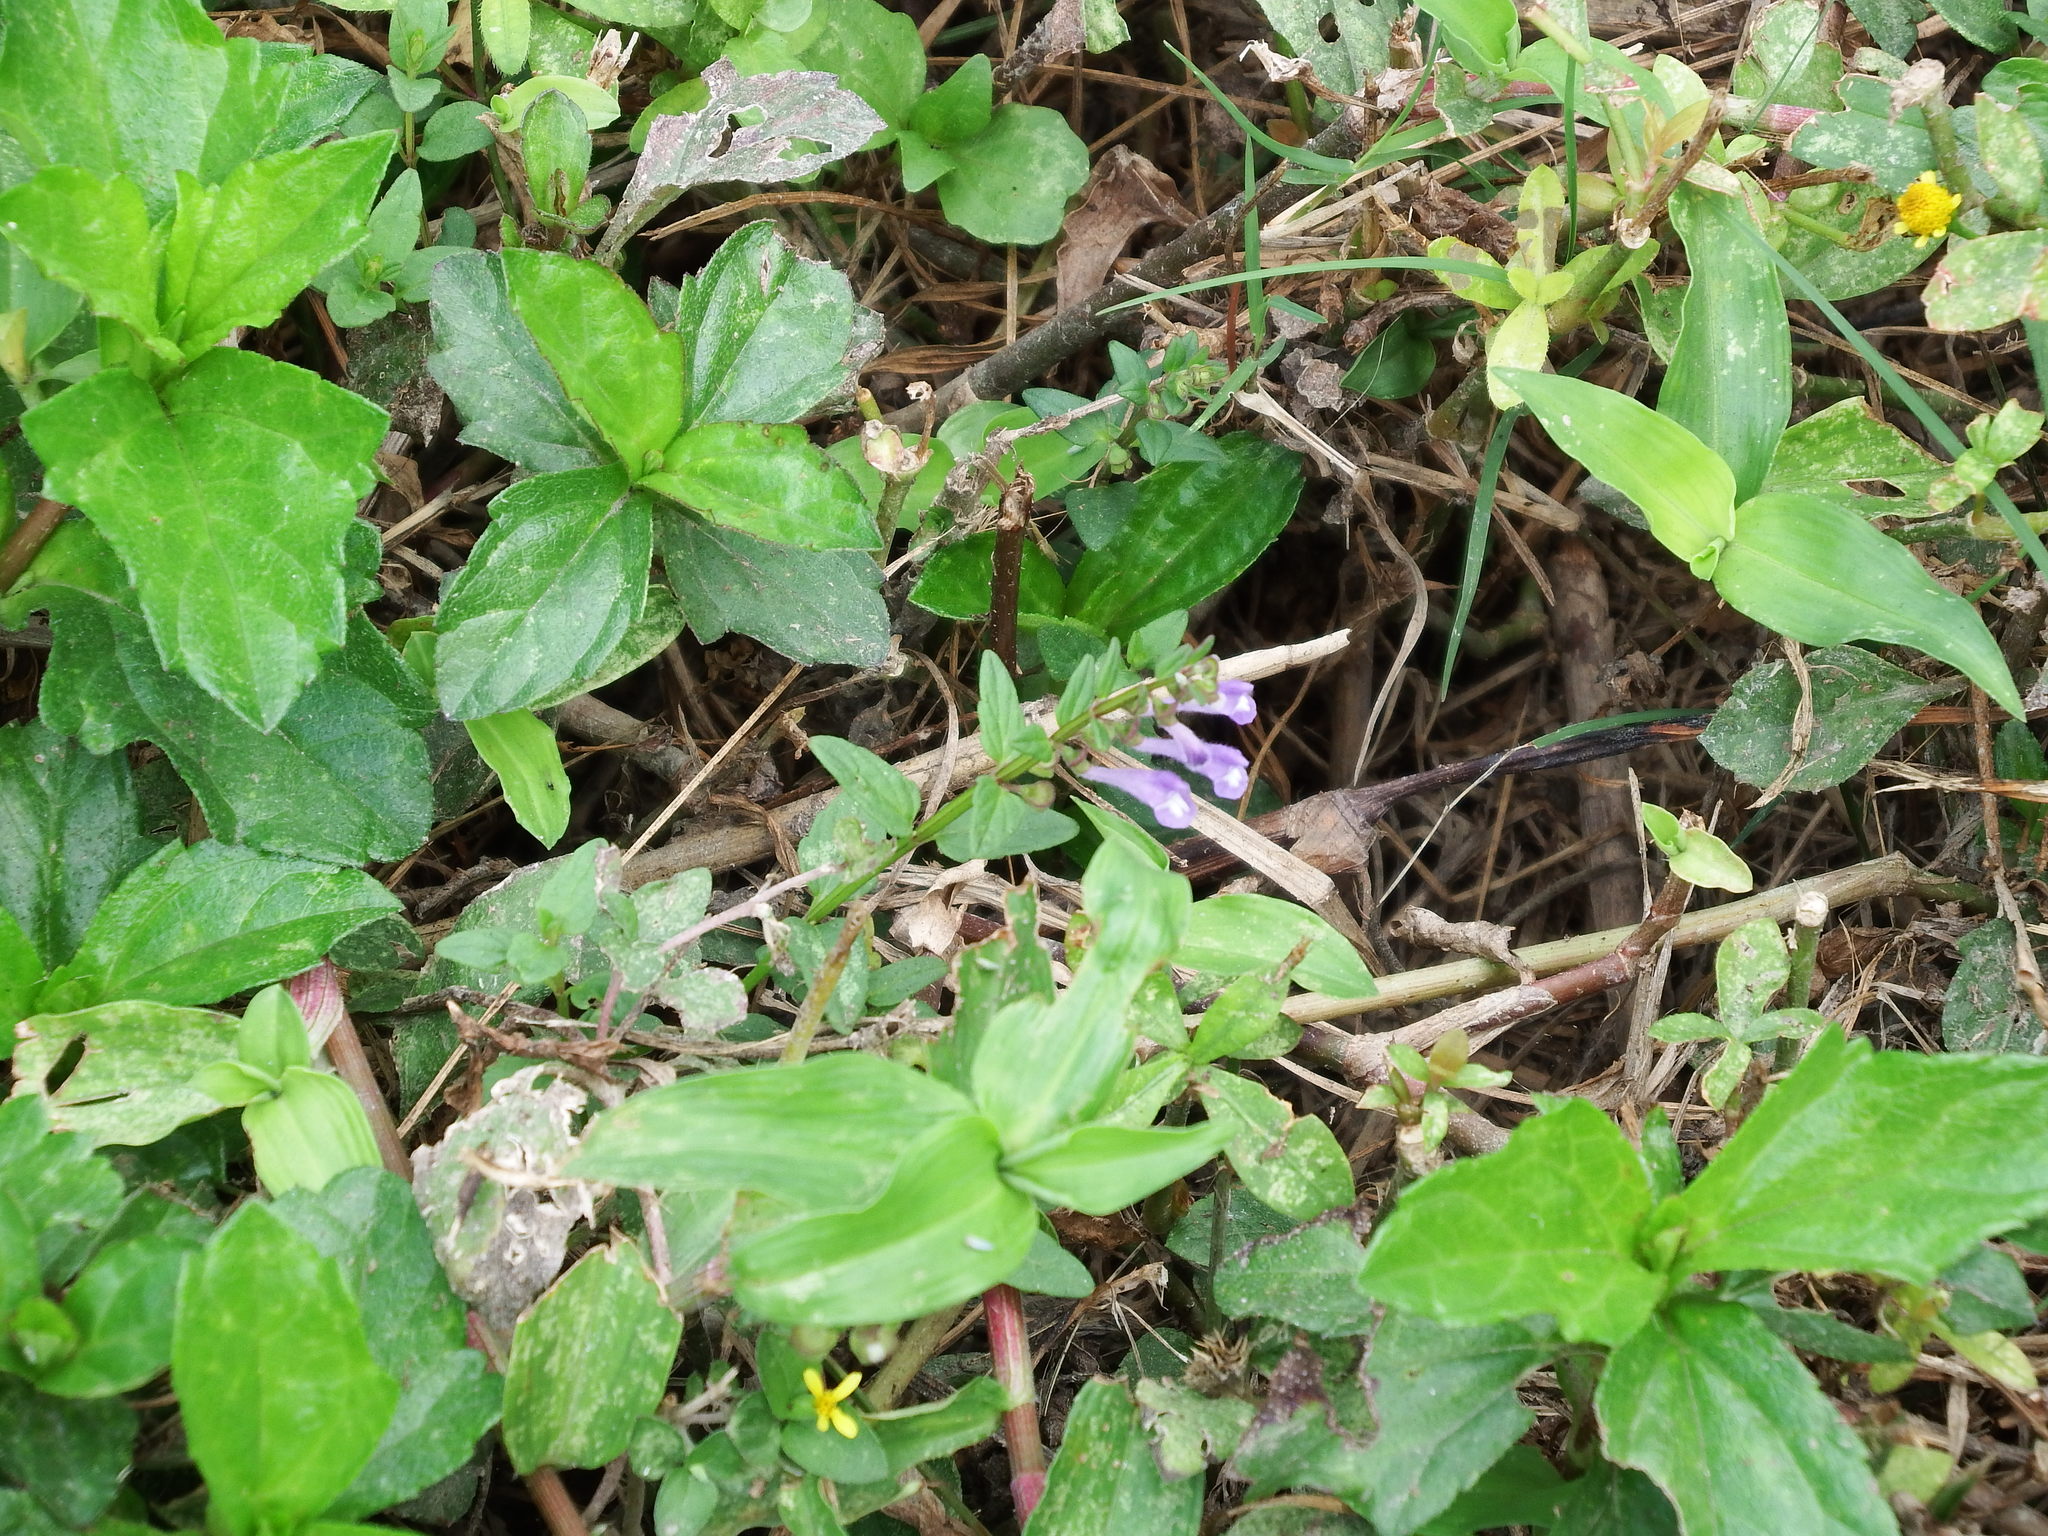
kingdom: Plantae
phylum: Tracheophyta
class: Magnoliopsida
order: Lamiales
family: Lamiaceae
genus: Scutellaria
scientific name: Scutellaria barbata
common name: Barbed skullcap
